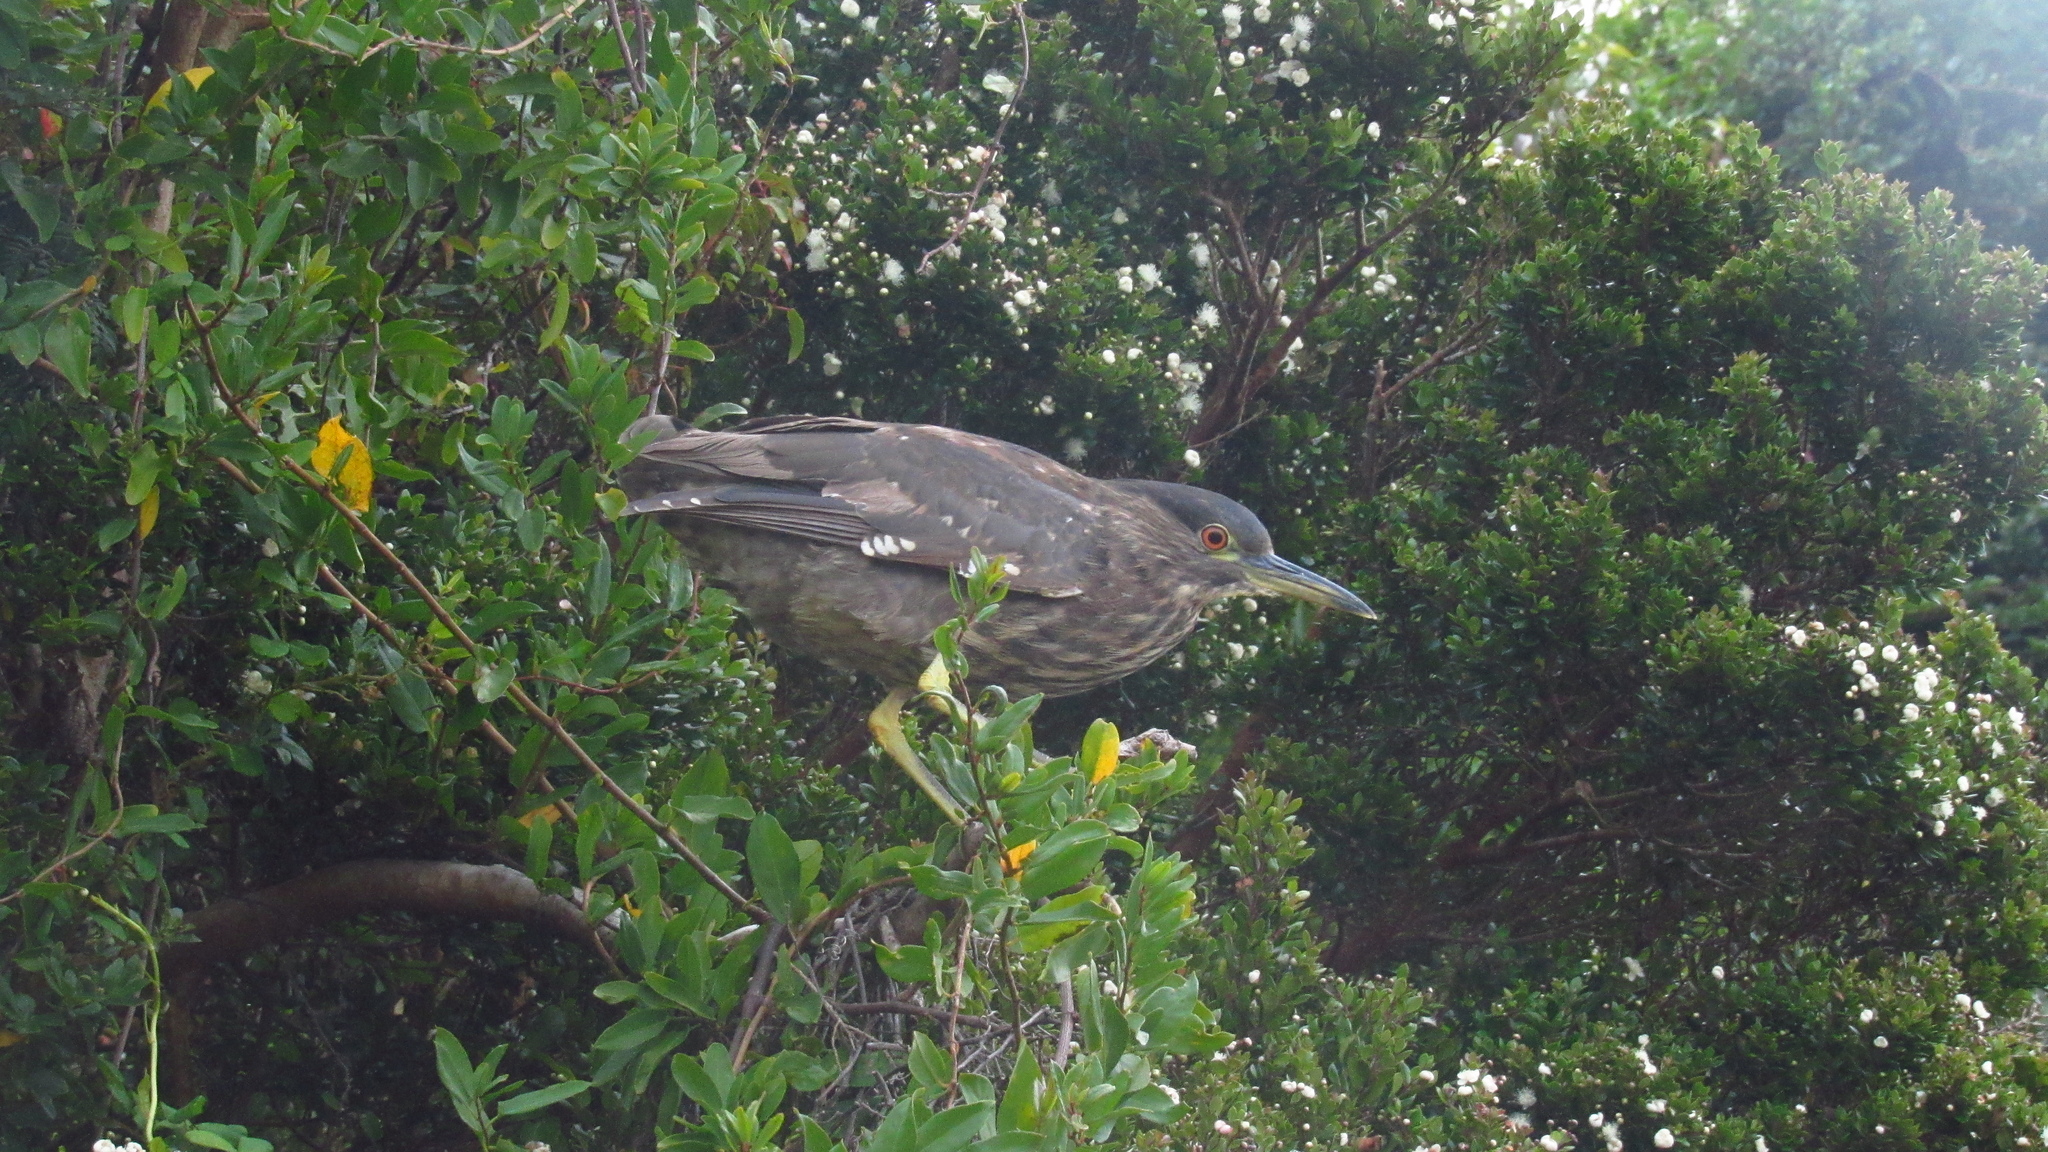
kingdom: Animalia
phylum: Chordata
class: Aves
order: Pelecaniformes
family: Ardeidae
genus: Nycticorax
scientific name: Nycticorax nycticorax
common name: Black-crowned night heron
